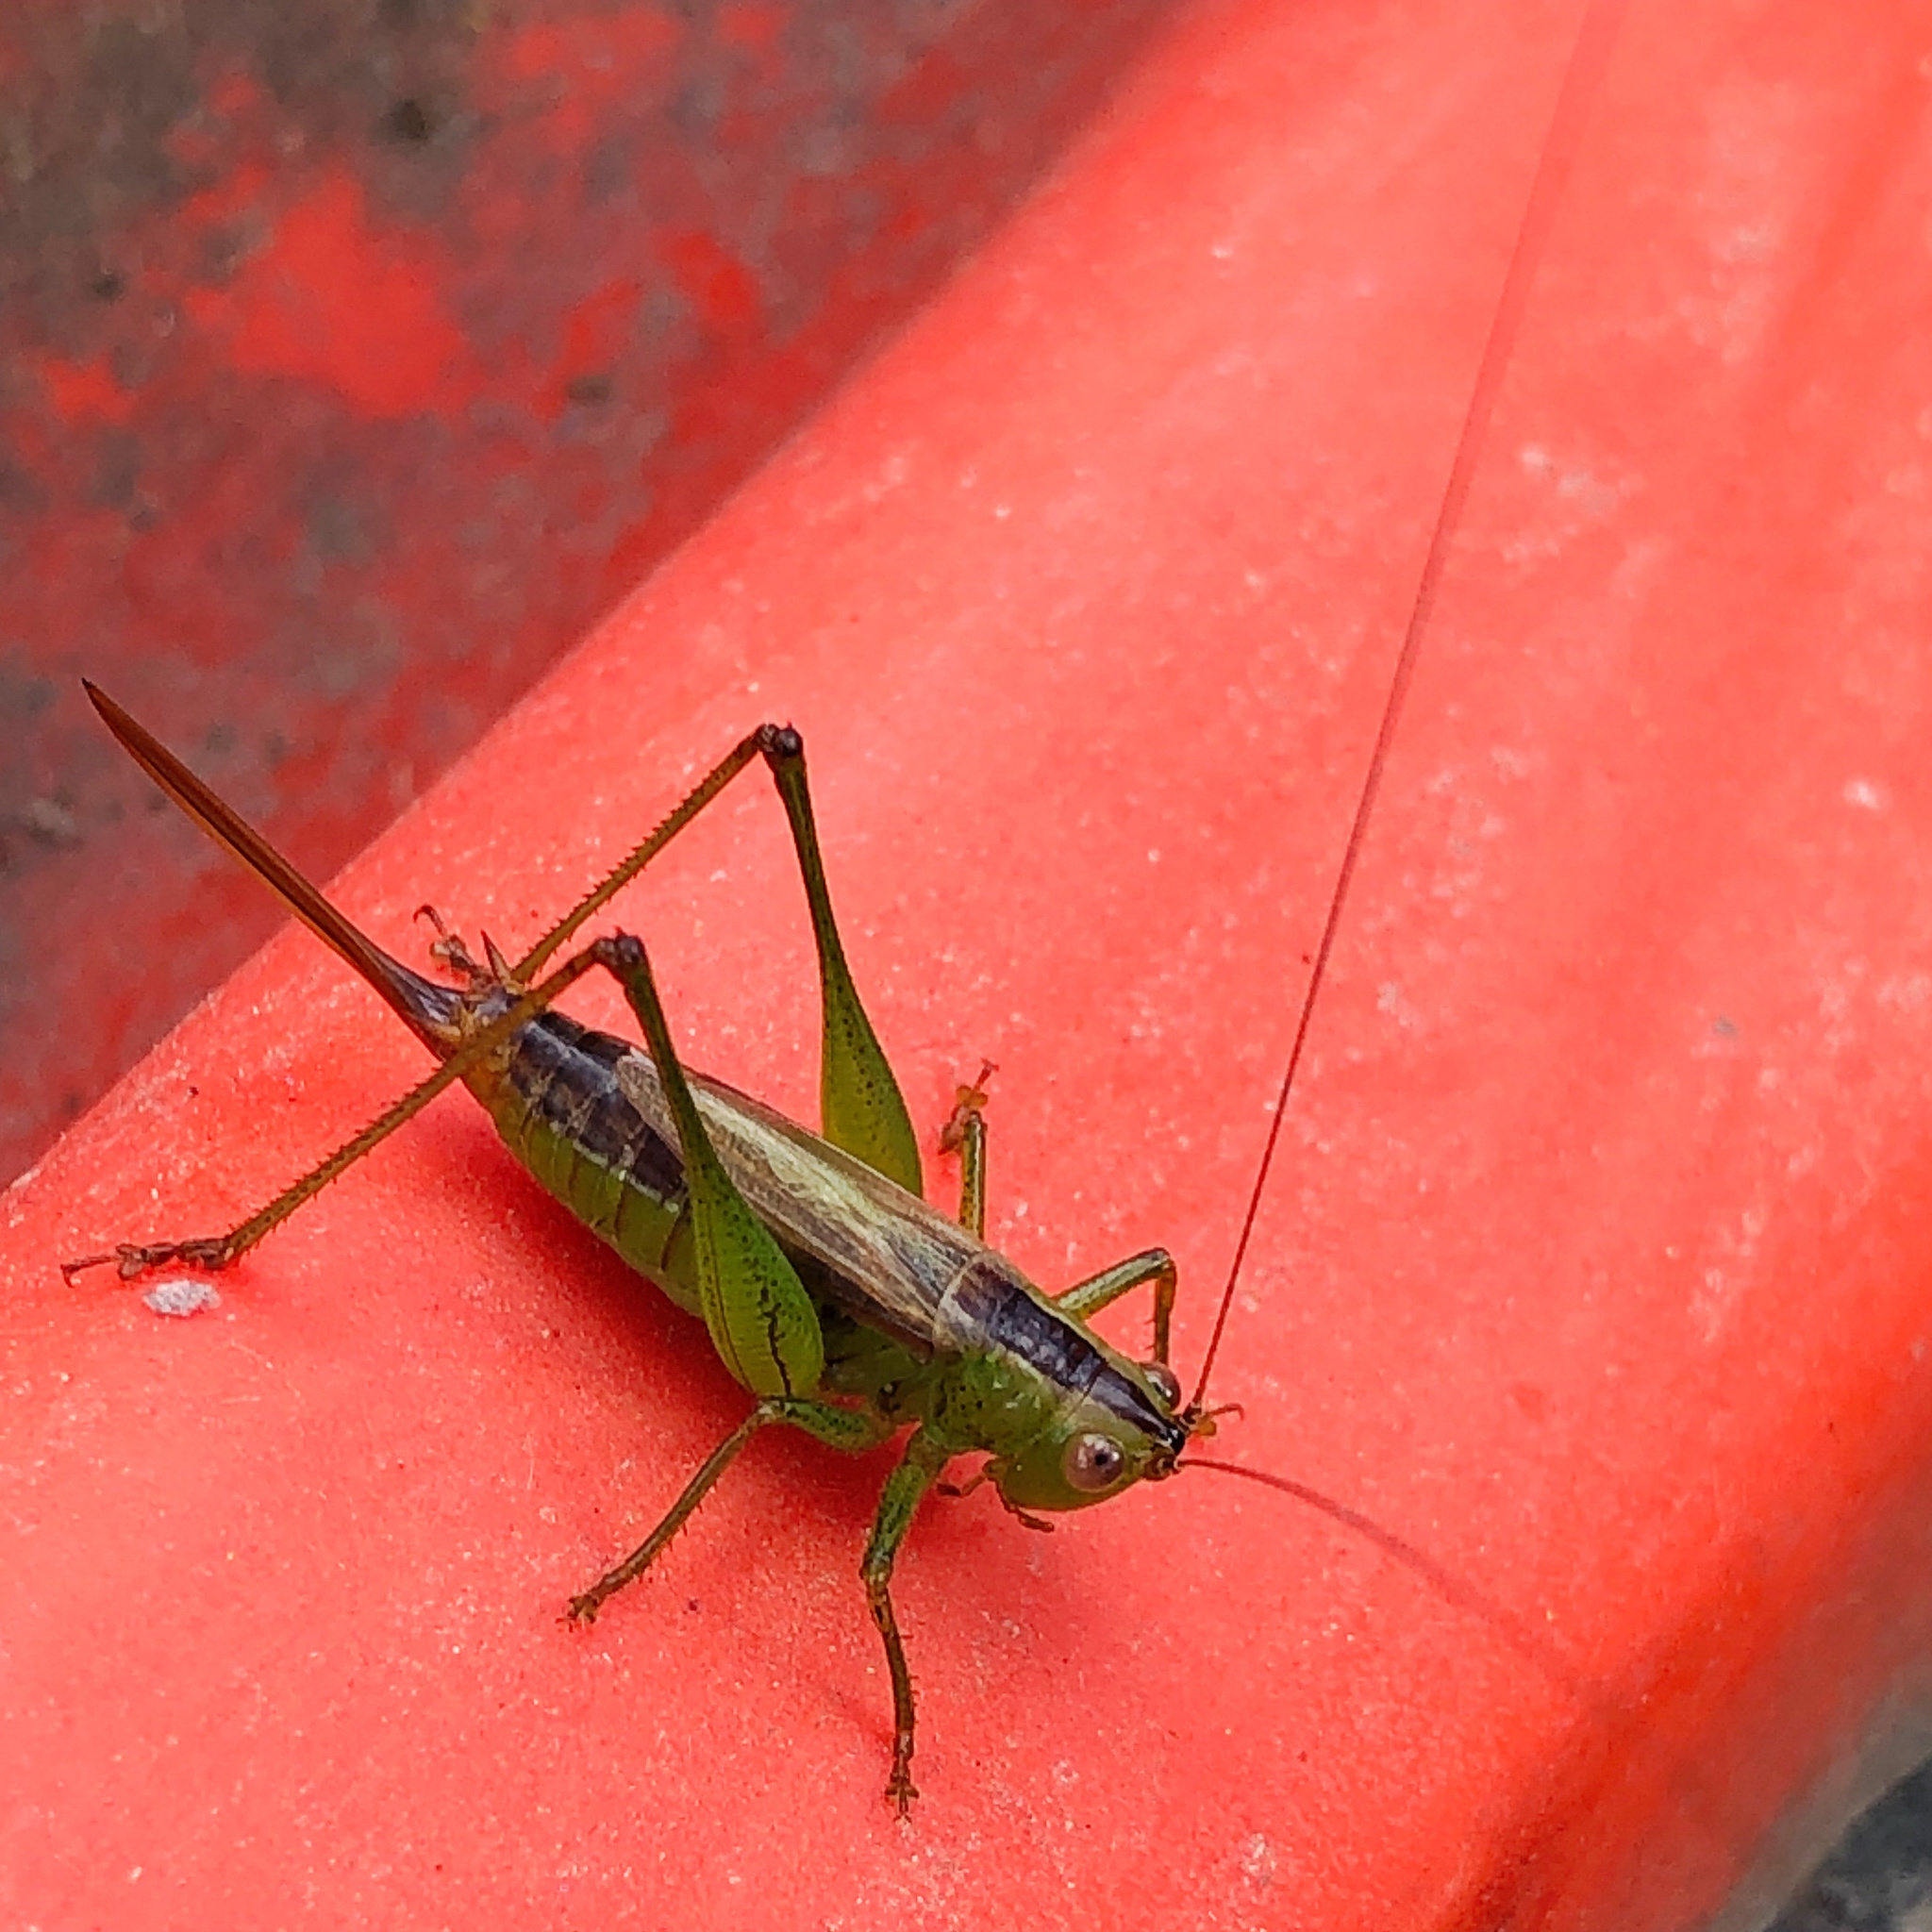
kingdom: Animalia
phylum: Arthropoda
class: Insecta
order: Orthoptera
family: Tettigoniidae
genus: Conocephalus
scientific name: Conocephalus brevipennis
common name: Short-winged meadow katydid
